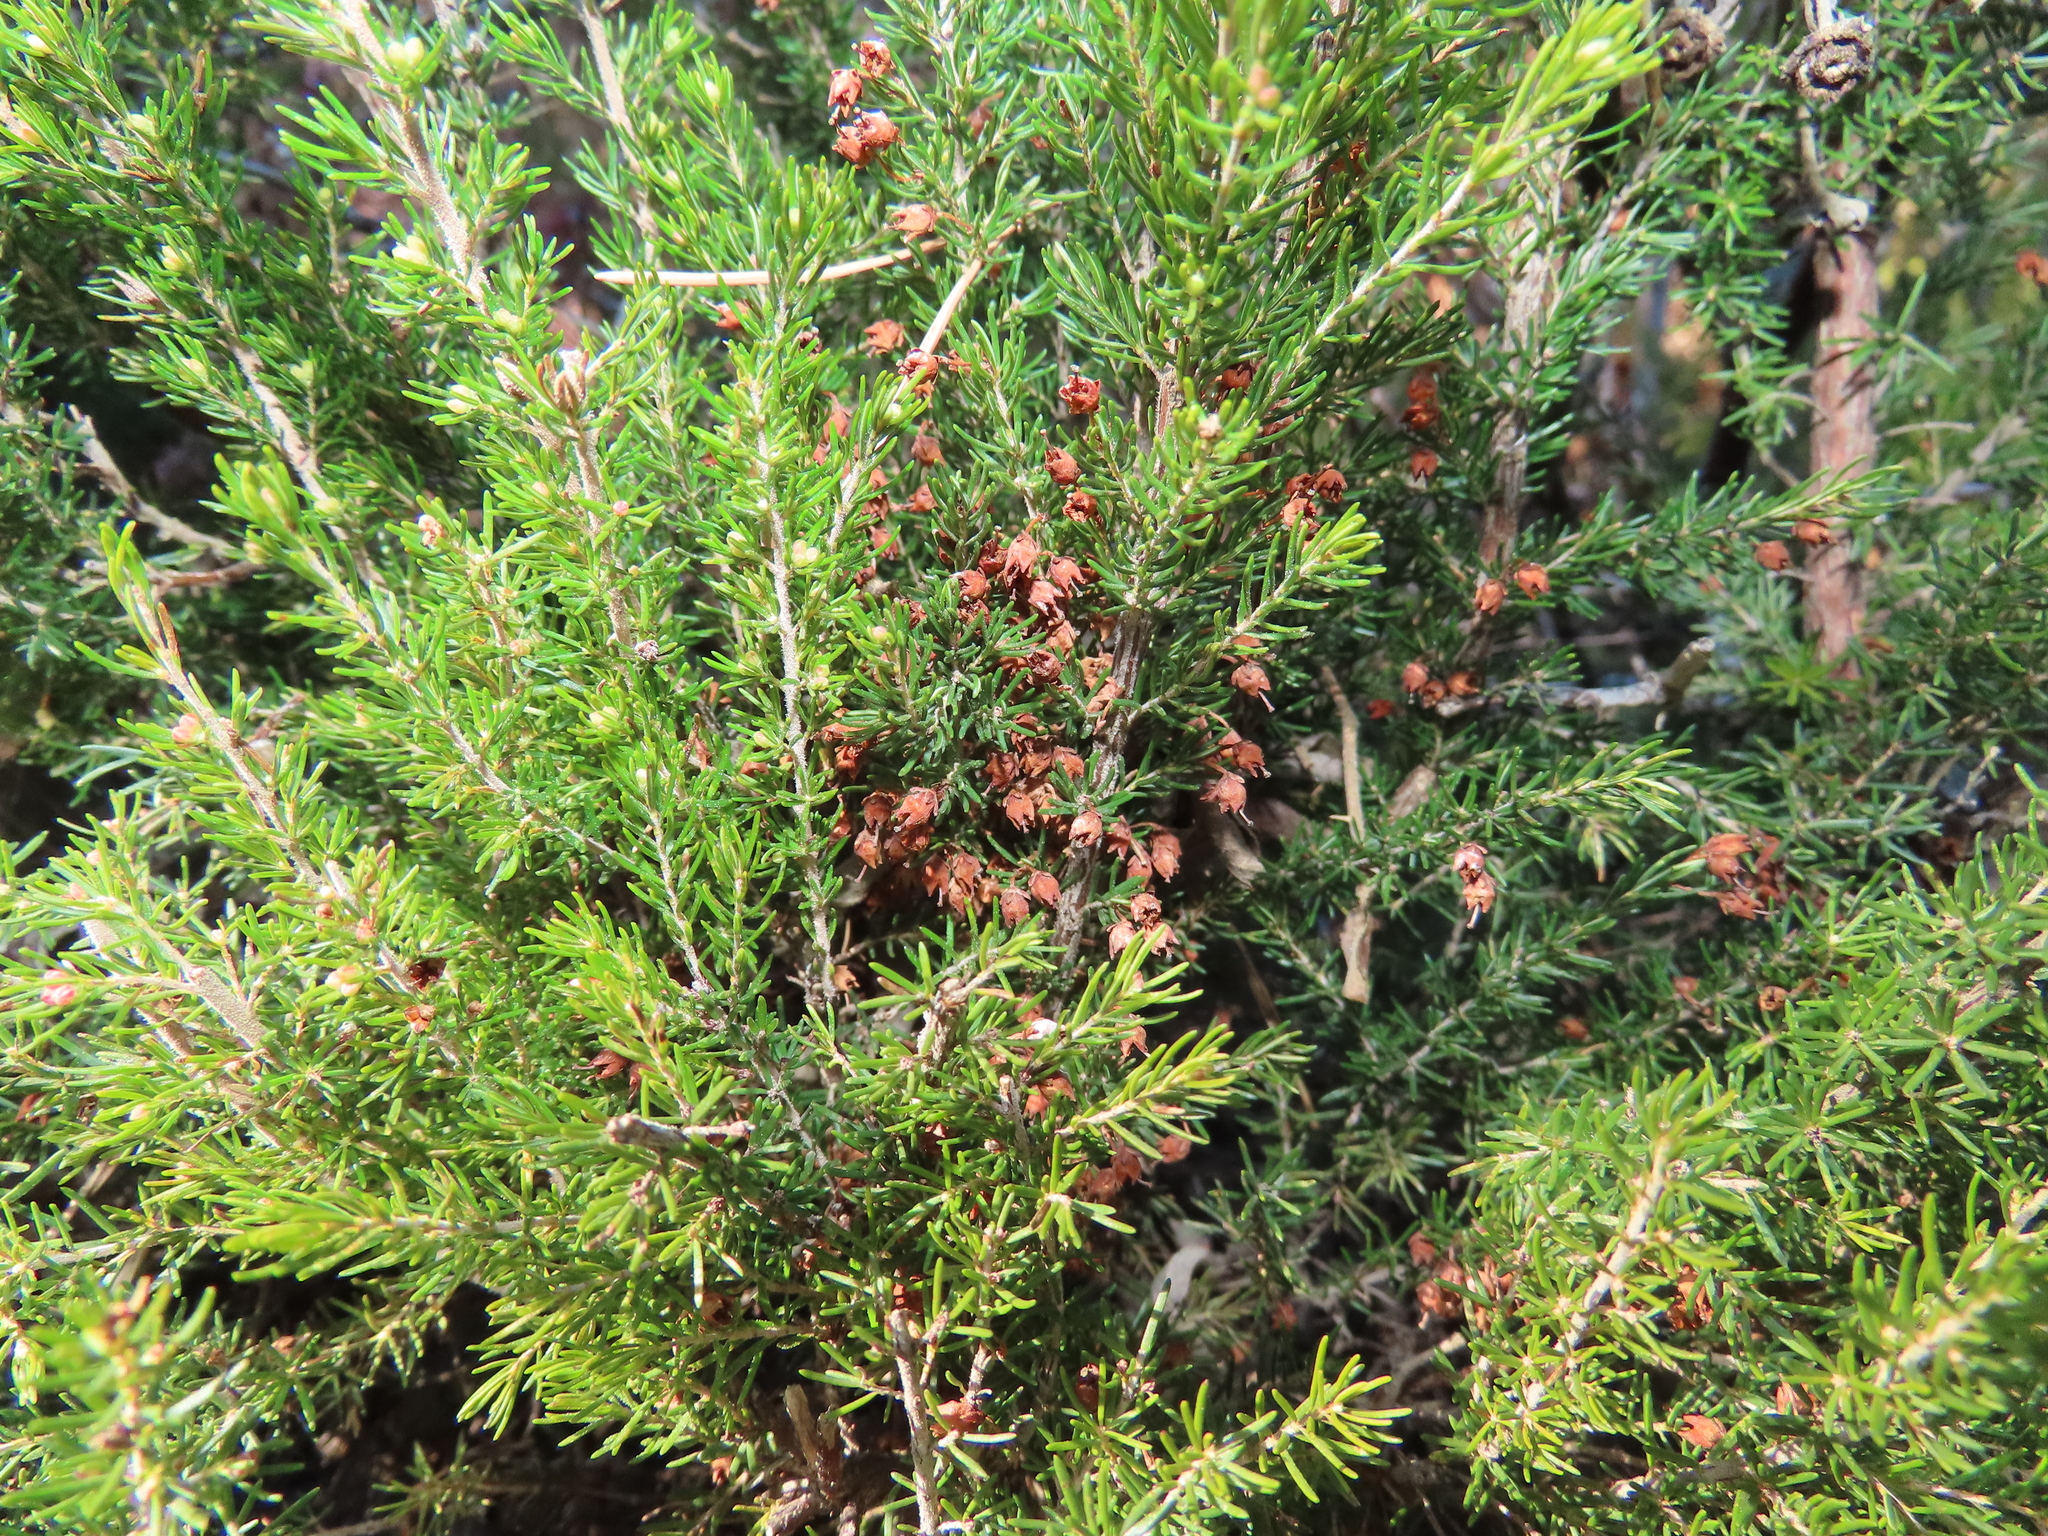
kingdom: Plantae
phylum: Tracheophyta
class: Magnoliopsida
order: Ericales
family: Ericaceae
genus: Erica
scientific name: Erica arborea
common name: Tree heath
